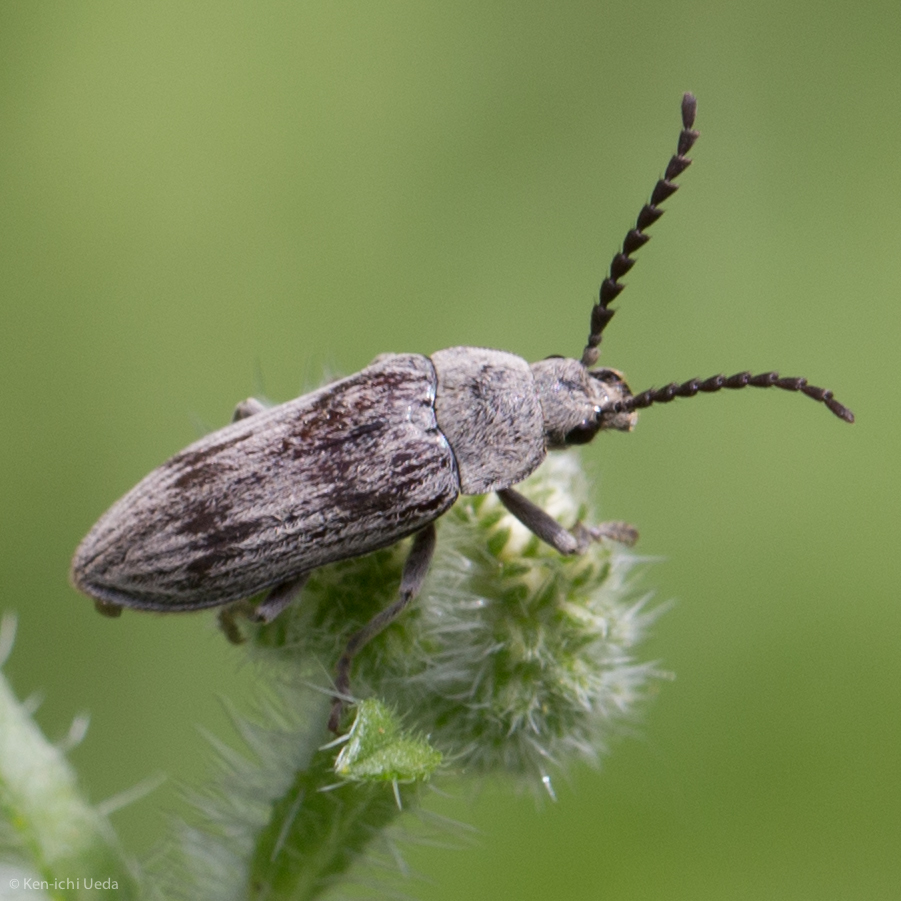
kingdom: Animalia
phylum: Arthropoda
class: Insecta
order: Coleoptera
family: Dascillidae
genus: Dascillus
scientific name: Dascillus davidsoni
